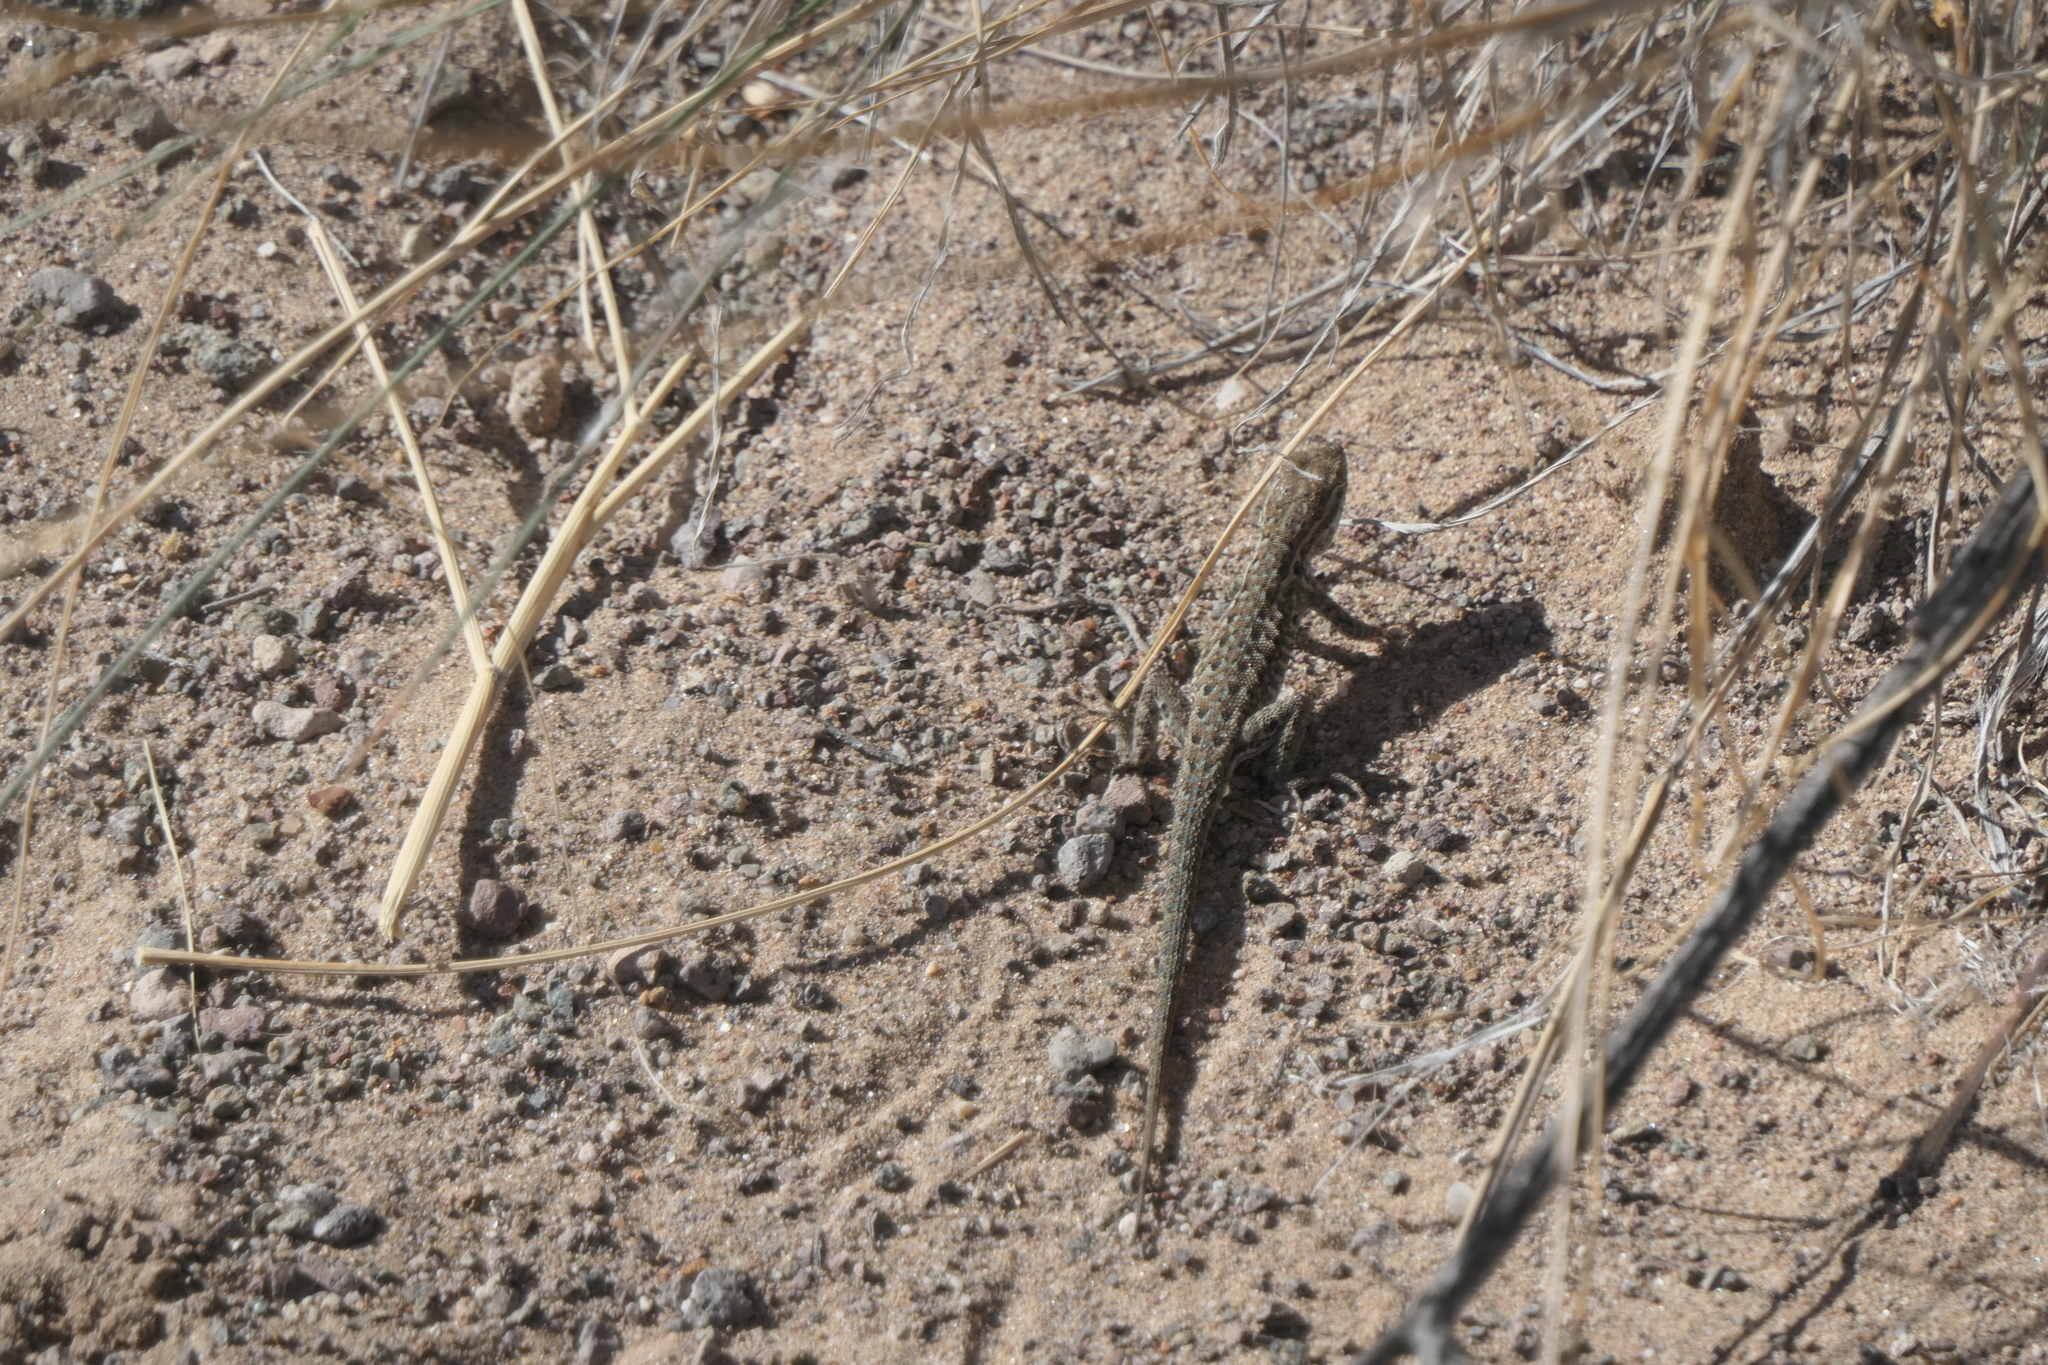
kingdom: Animalia
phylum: Chordata
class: Squamata
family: Phrynosomatidae
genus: Uta
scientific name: Uta stansburiana
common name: Side-blotched lizard
